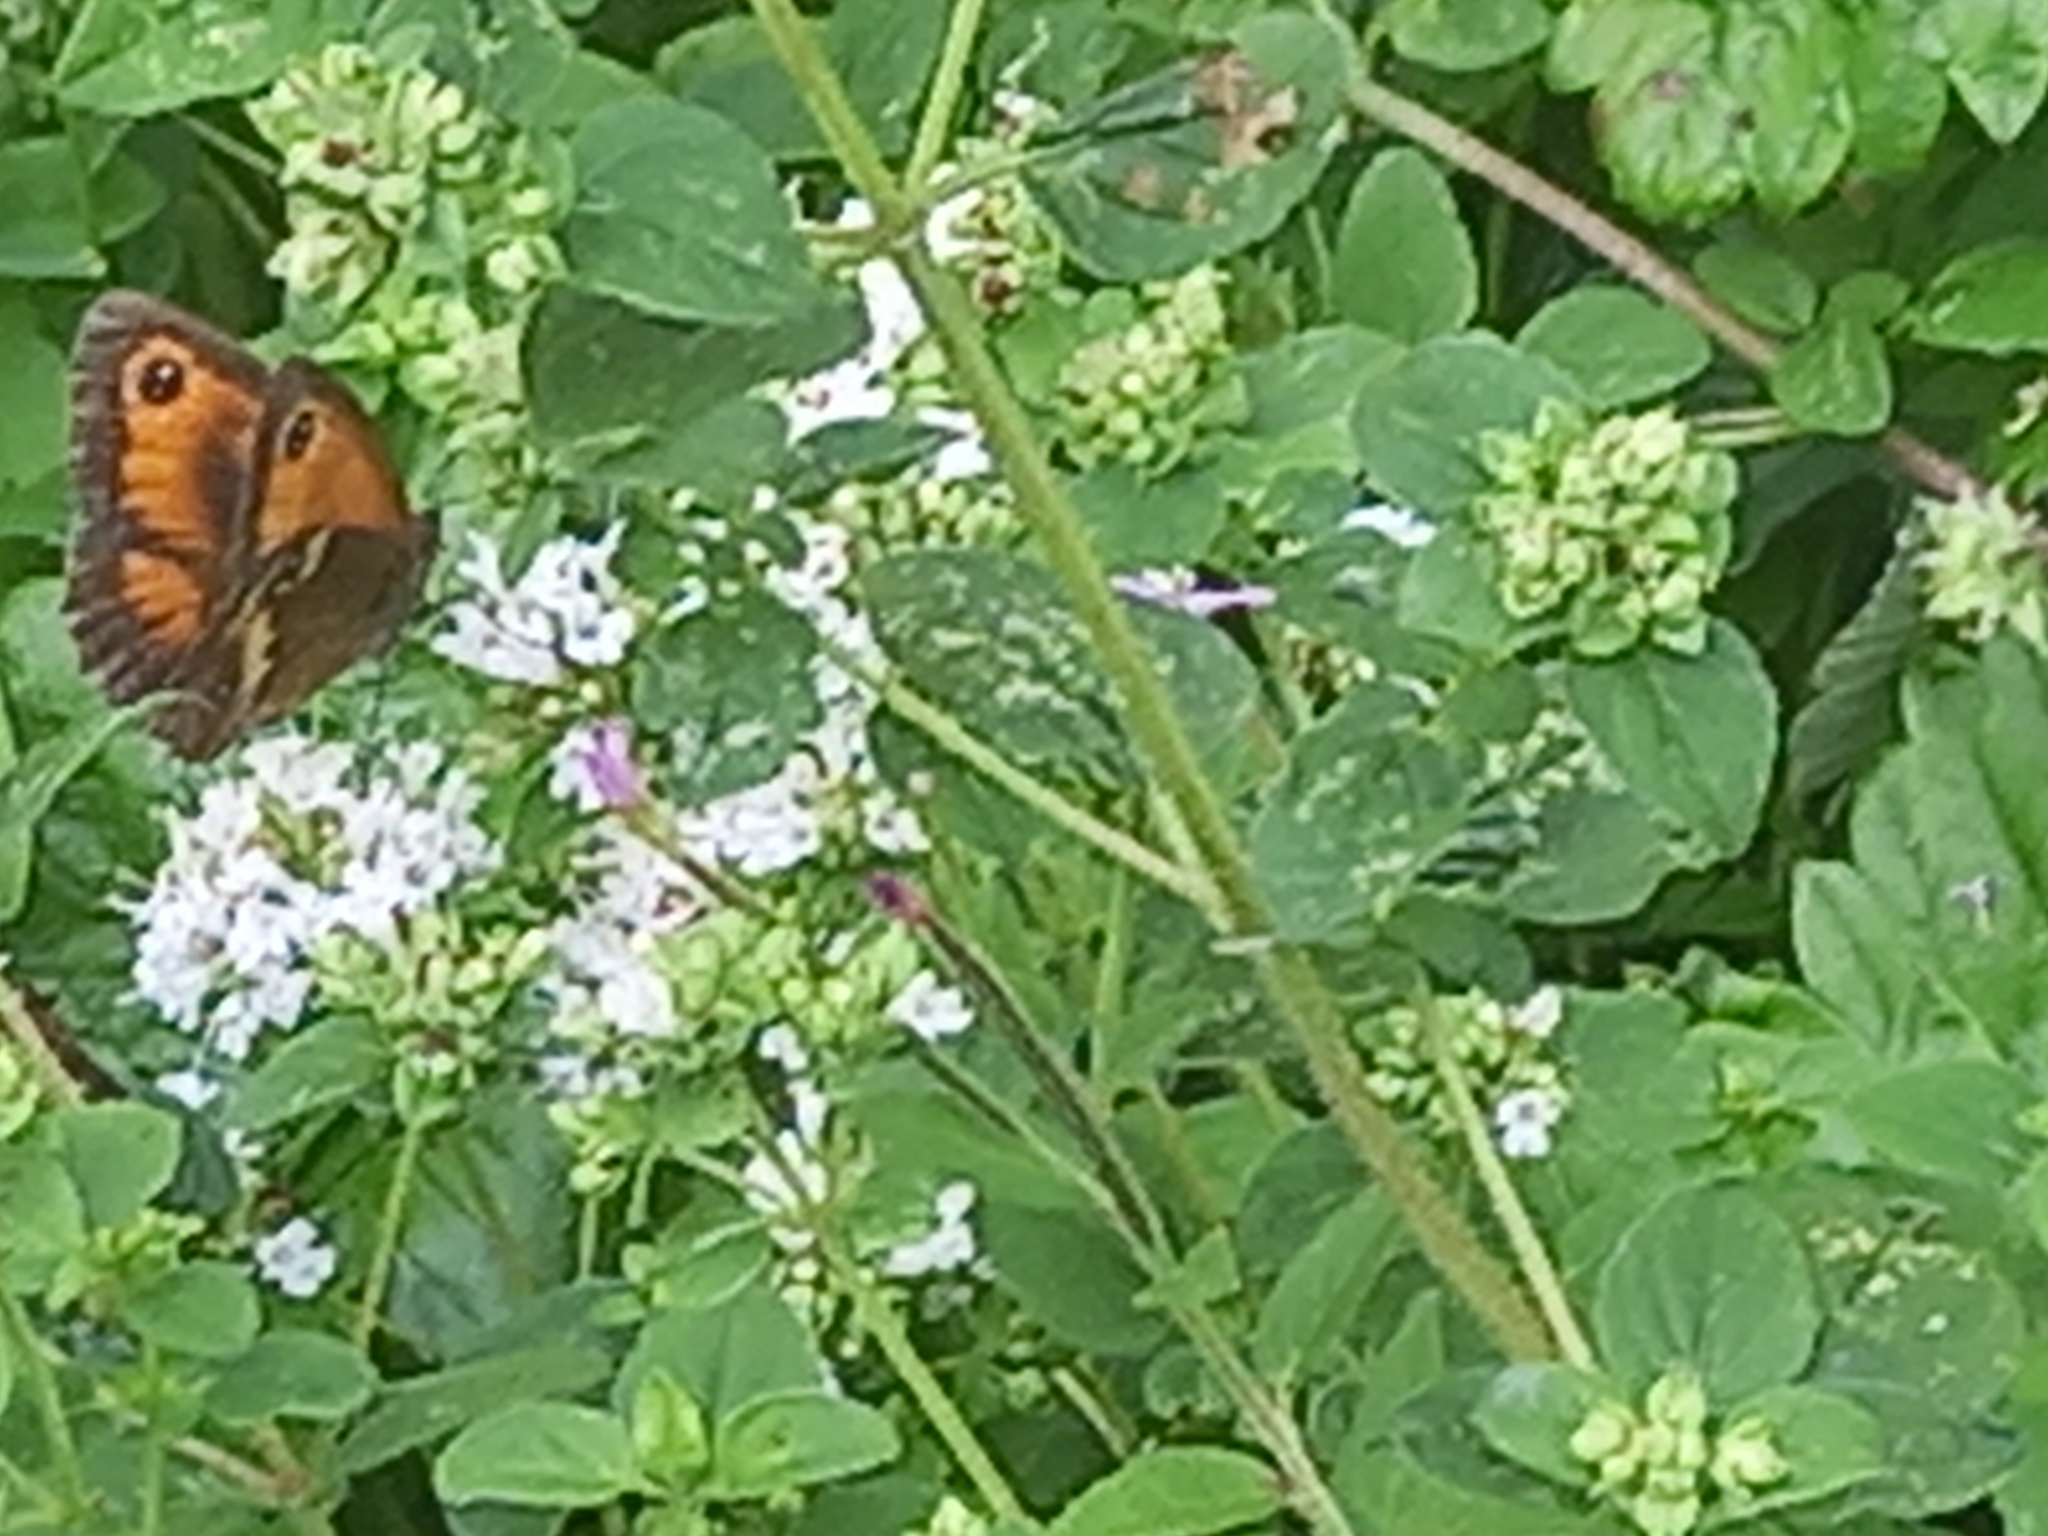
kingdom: Animalia
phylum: Arthropoda
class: Insecta
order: Lepidoptera
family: Nymphalidae
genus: Pyronia
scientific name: Pyronia tithonus
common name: Gatekeeper
